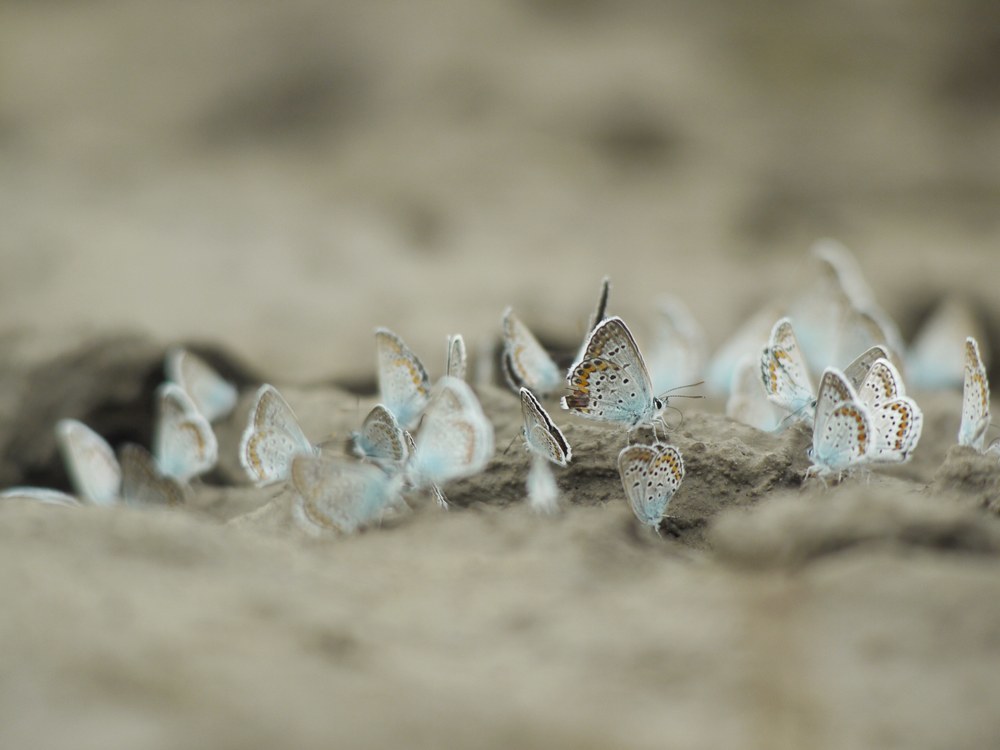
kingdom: Animalia
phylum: Arthropoda
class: Insecta
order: Lepidoptera
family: Lycaenidae
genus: Plebejus
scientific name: Plebejus argus
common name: Silver-studded blue
